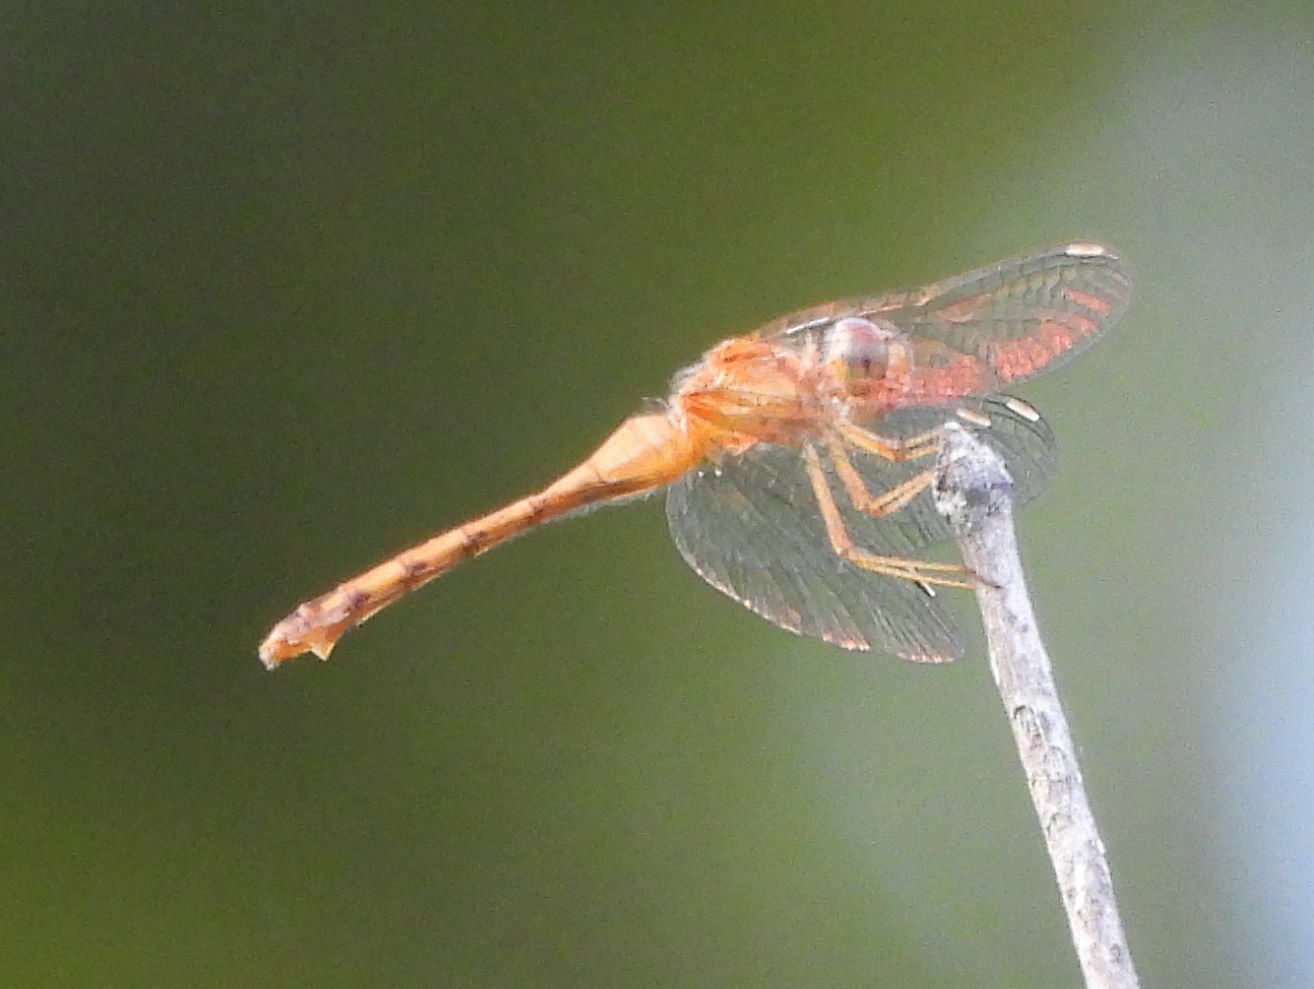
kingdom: Animalia
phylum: Arthropoda
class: Insecta
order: Odonata
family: Libellulidae
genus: Sympetrum
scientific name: Sympetrum vicinum
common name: Autumn meadowhawk
